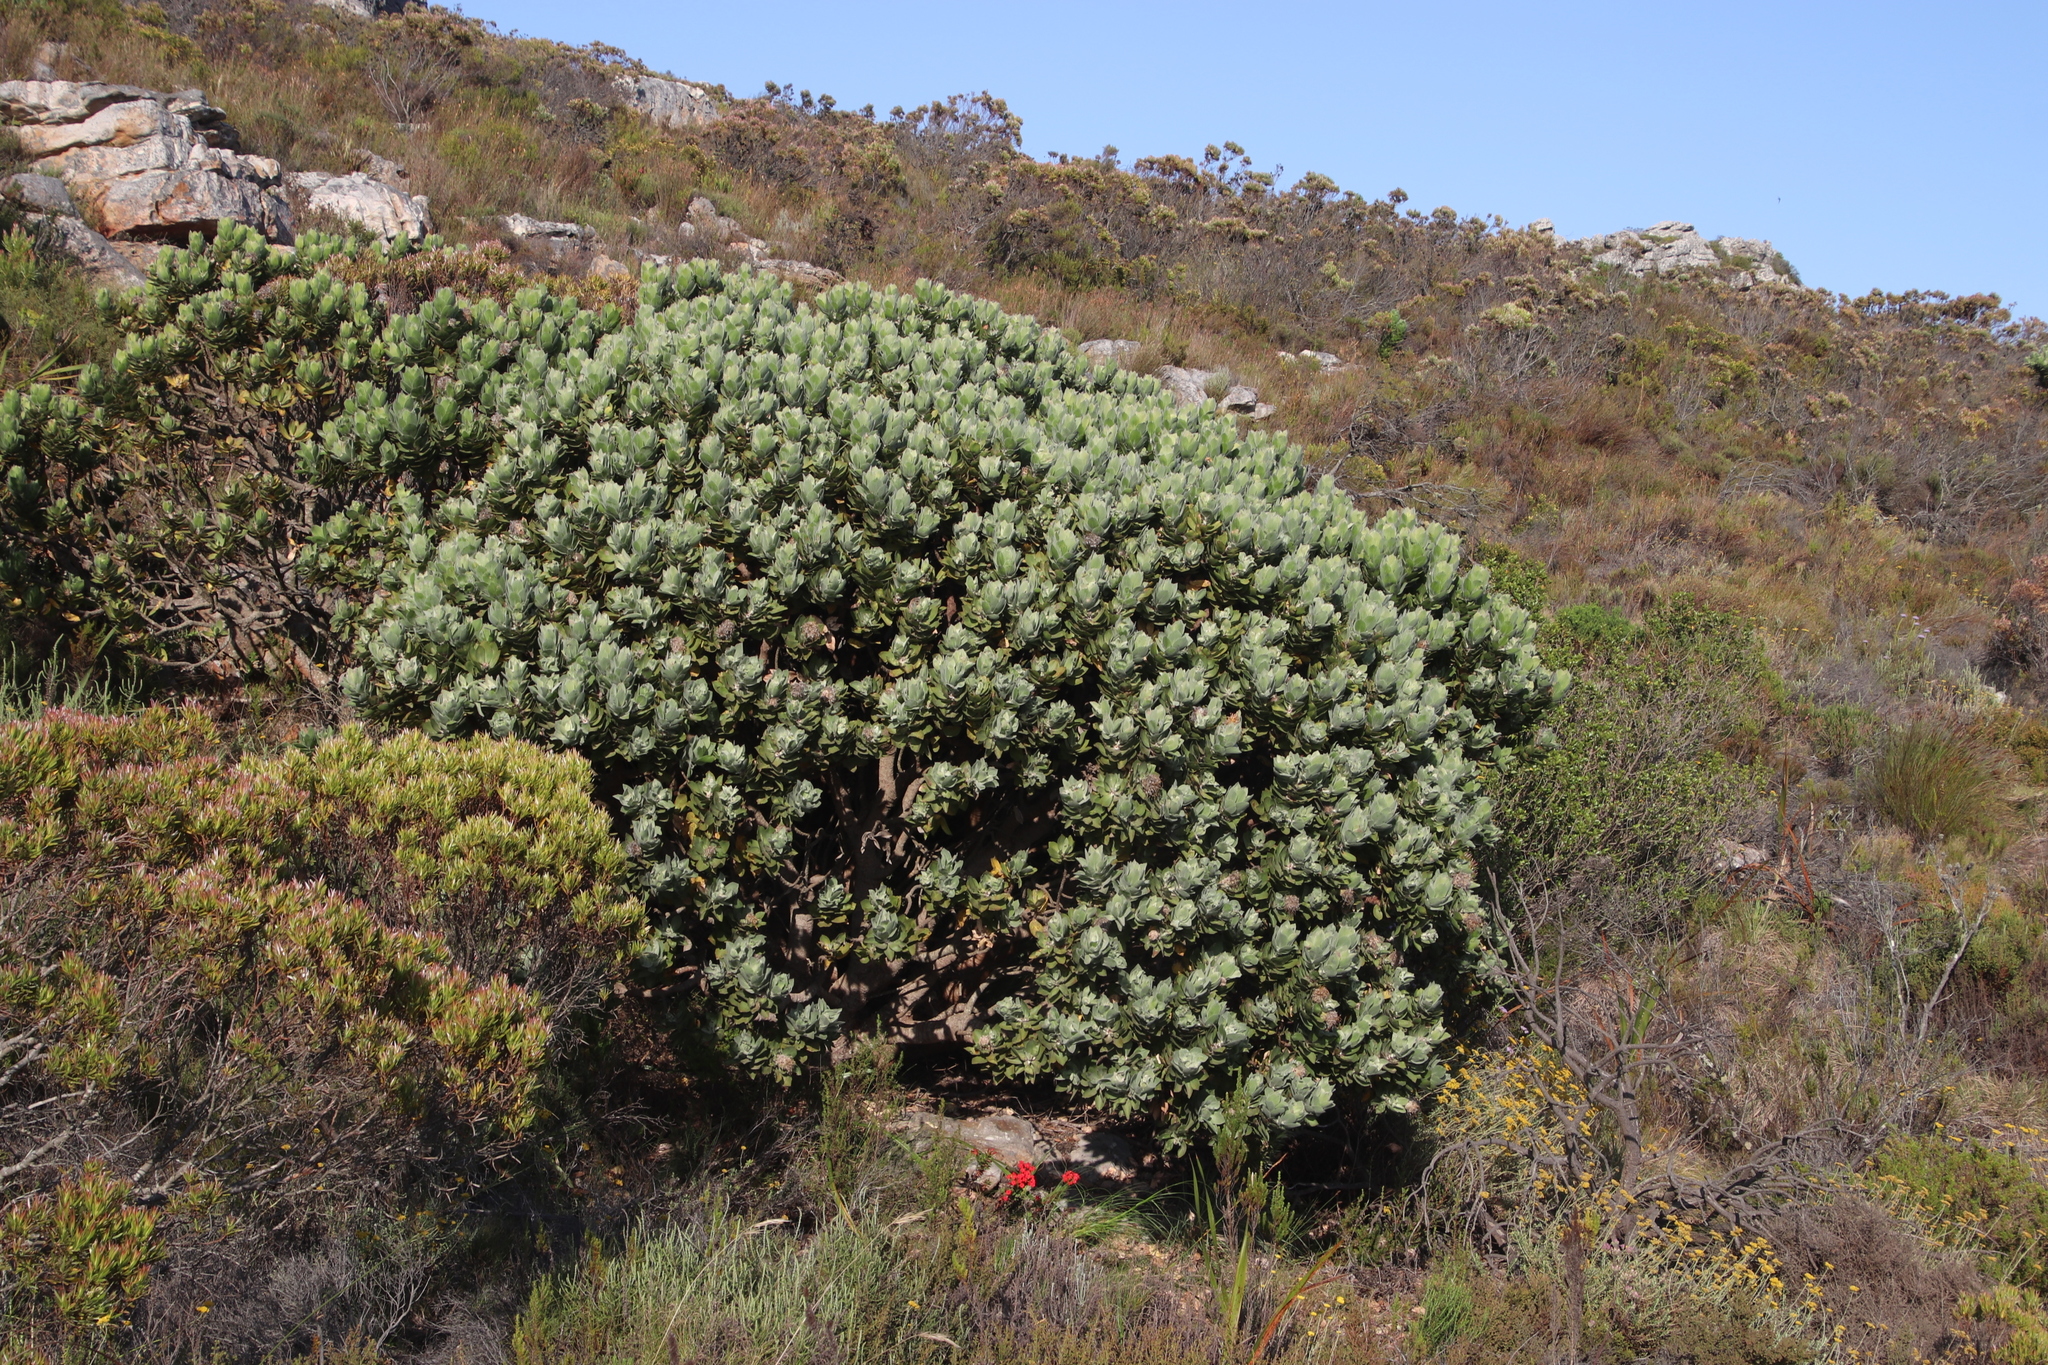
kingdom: Plantae
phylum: Tracheophyta
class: Magnoliopsida
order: Proteales
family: Proteaceae
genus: Leucospermum
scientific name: Leucospermum conocarpodendron
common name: Tree pincushion
